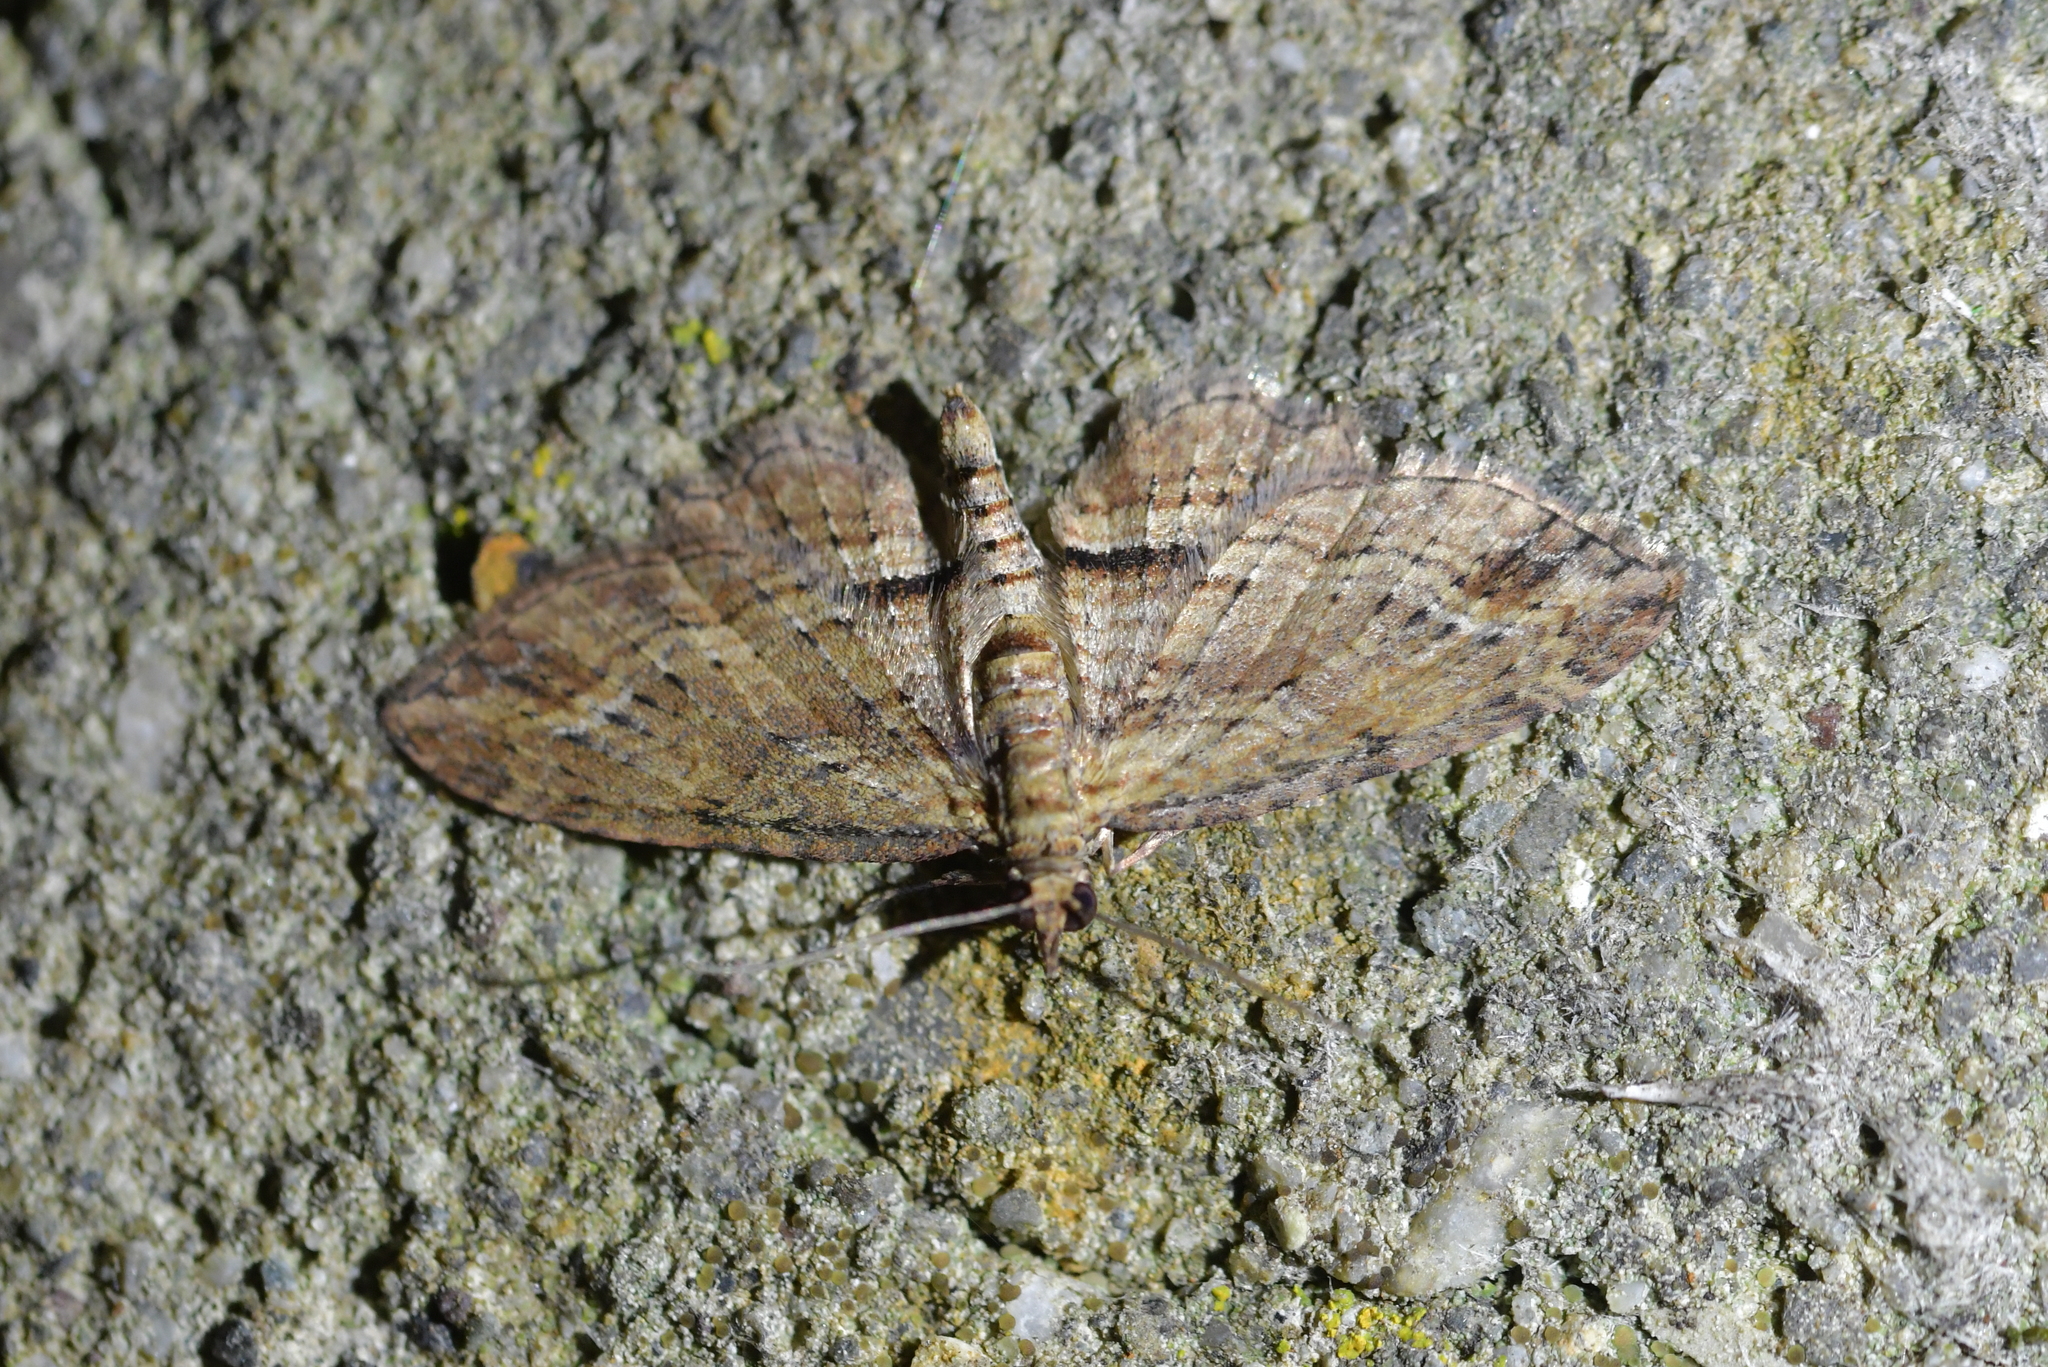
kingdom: Animalia
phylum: Arthropoda
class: Insecta
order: Lepidoptera
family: Geometridae
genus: Chloroclystis
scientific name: Chloroclystis filata
